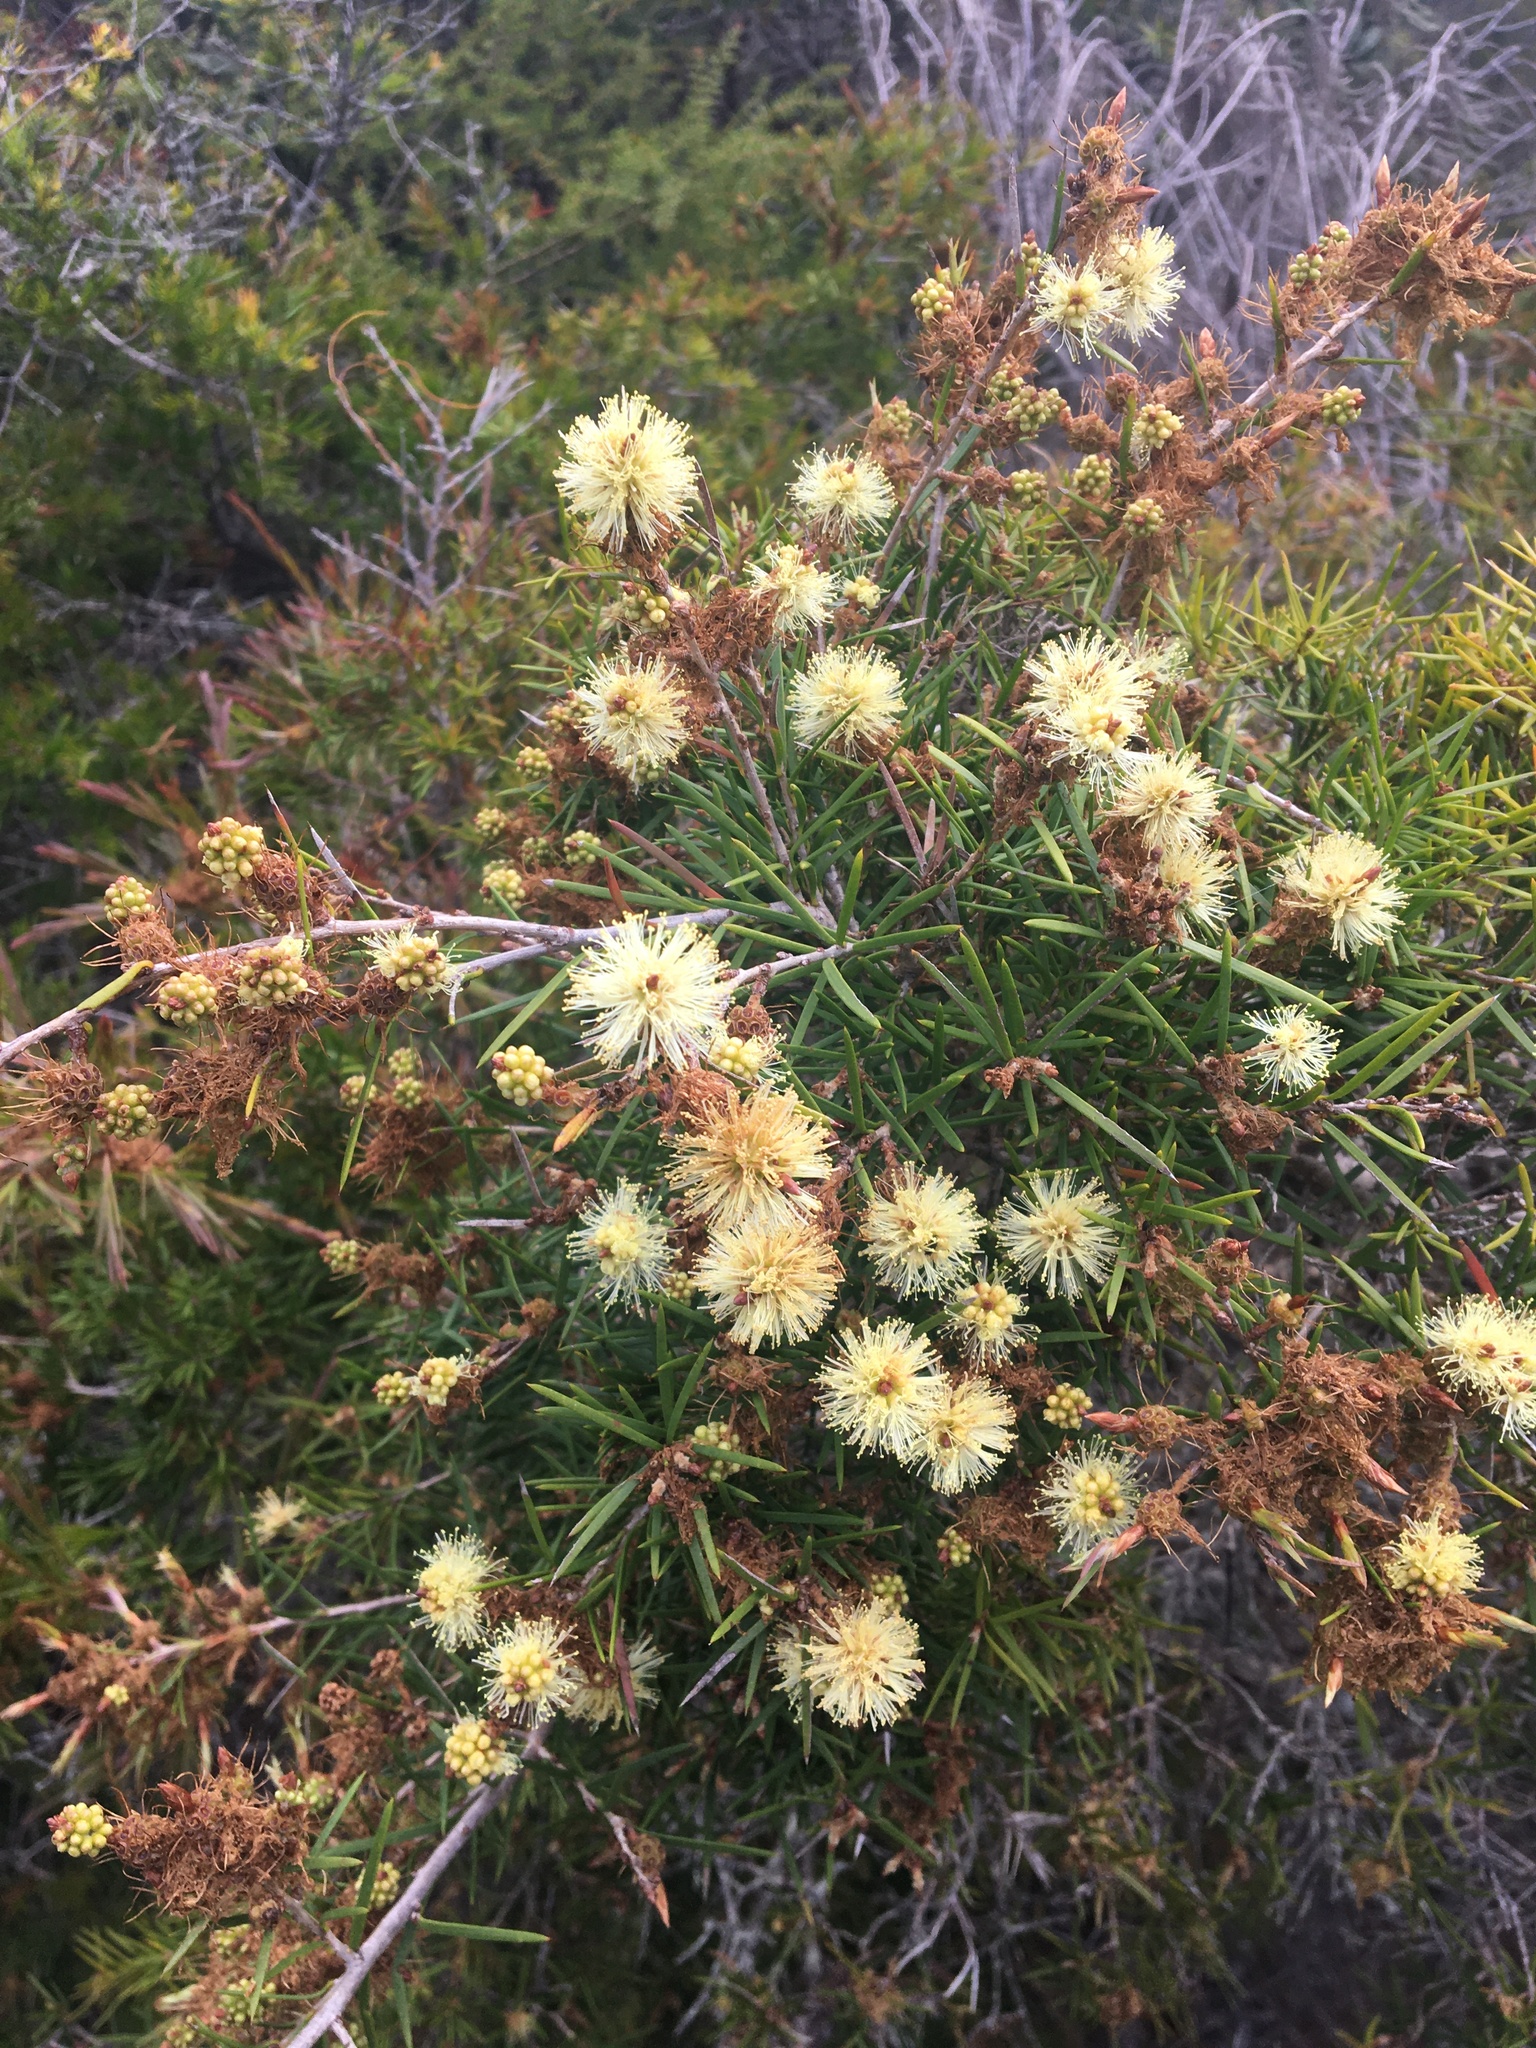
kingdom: Plantae
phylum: Tracheophyta
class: Magnoliopsida
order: Myrtales
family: Myrtaceae
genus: Melaleuca
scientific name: Melaleuca nodosa
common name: Prickly-leaf paperbark
